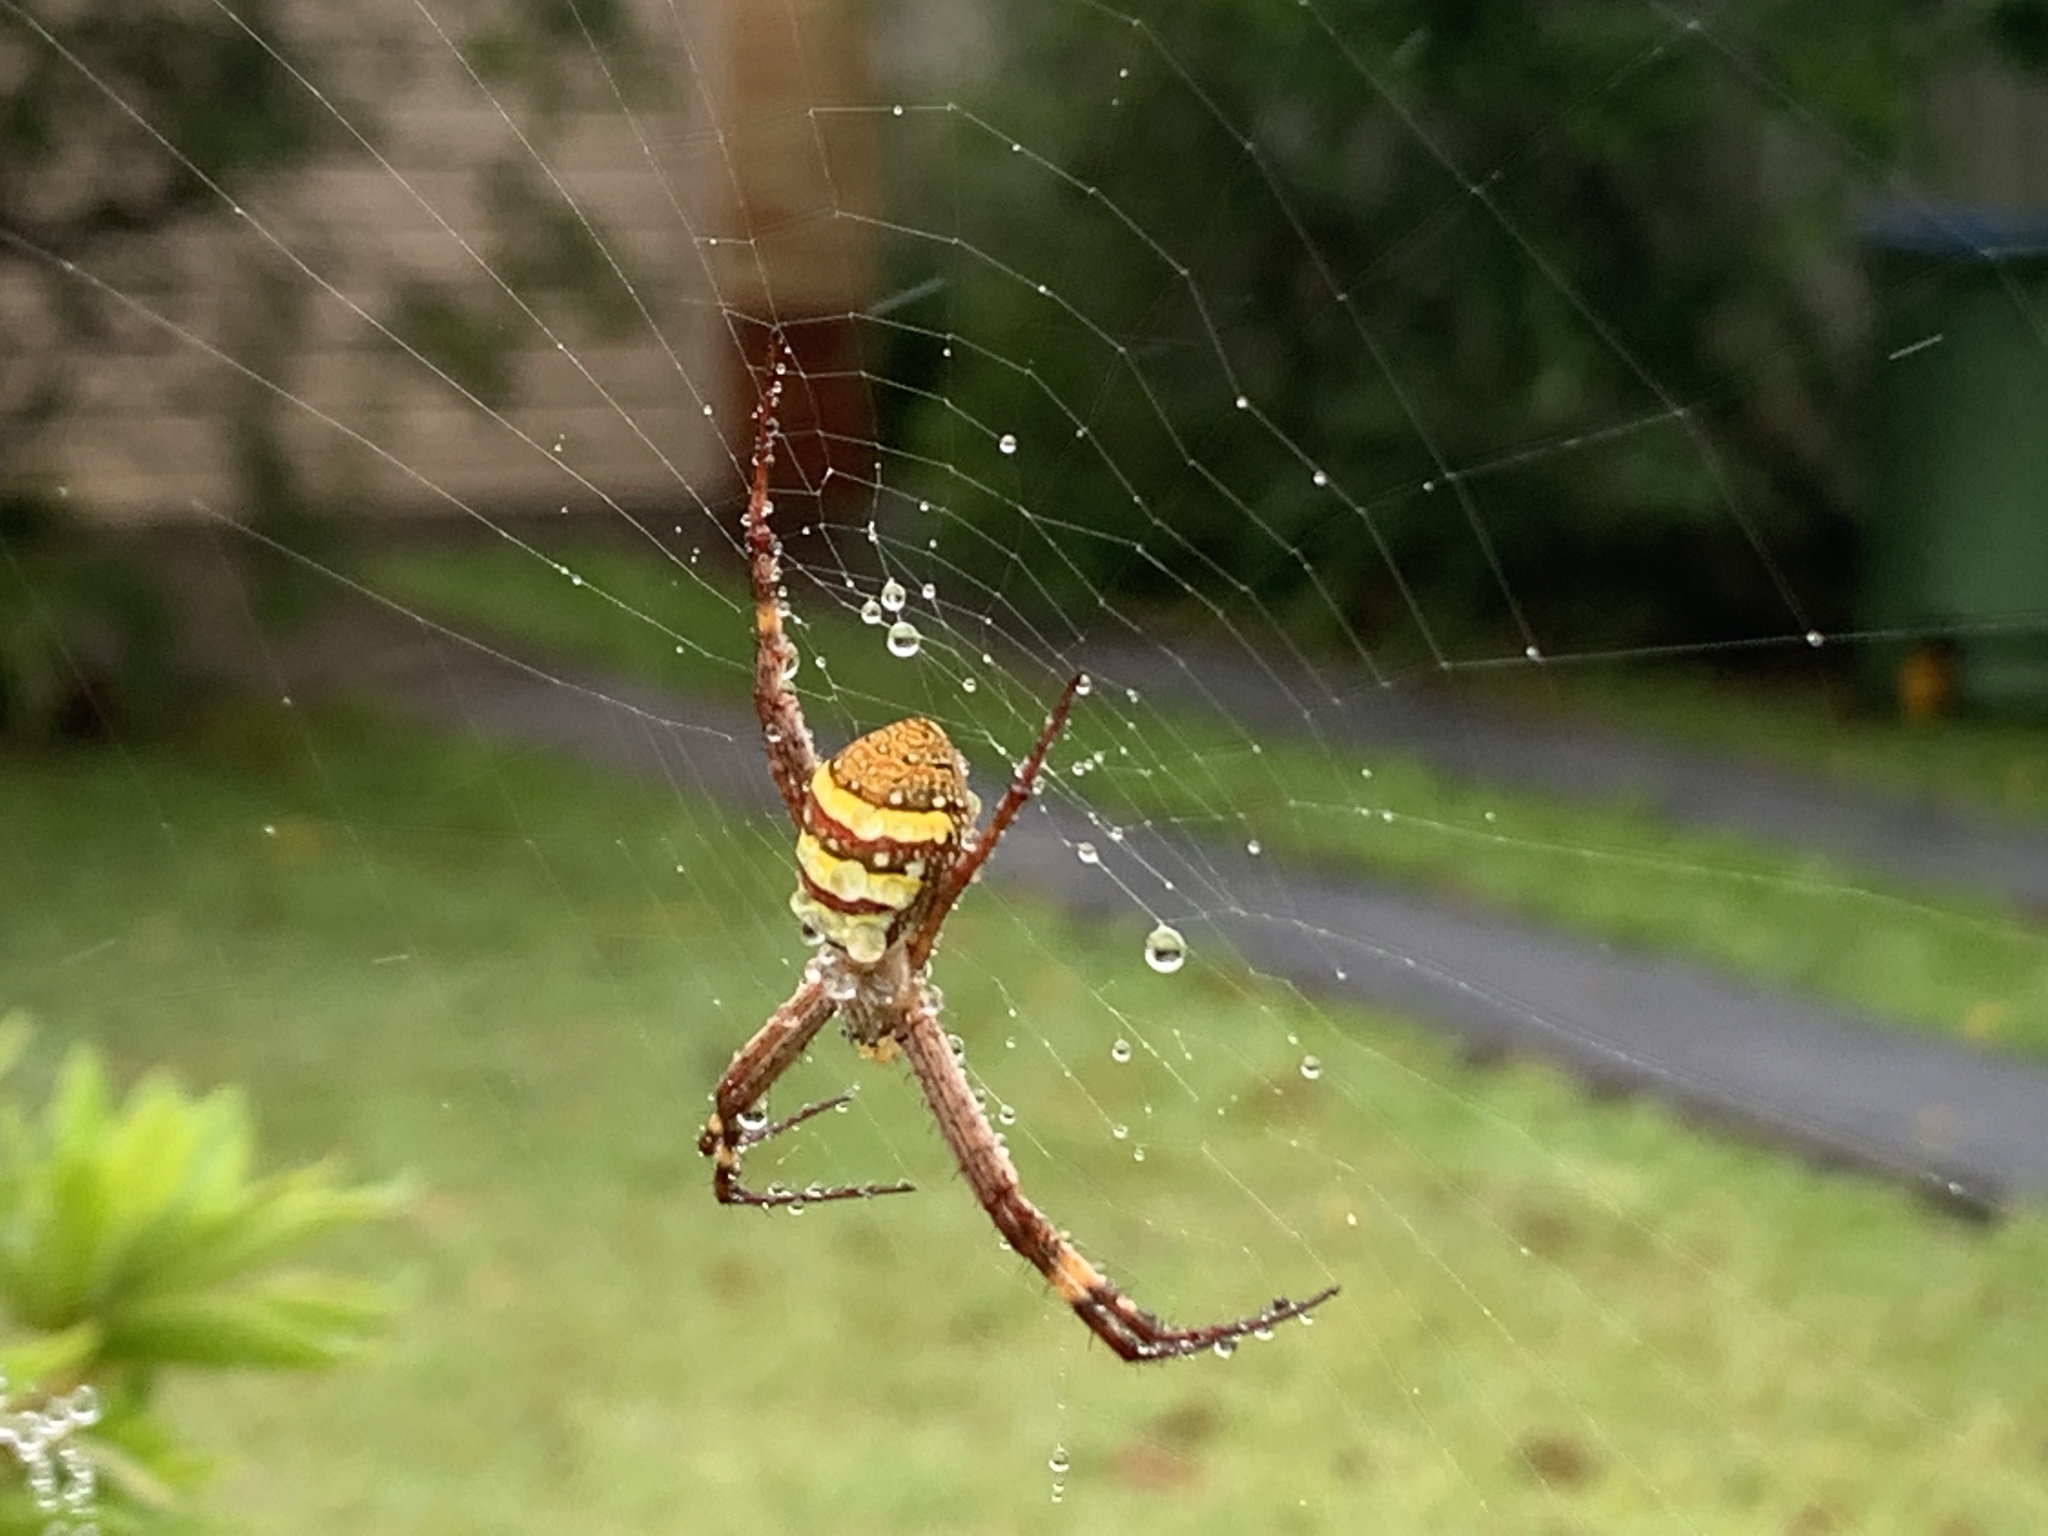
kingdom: Animalia
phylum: Arthropoda
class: Arachnida
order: Araneae
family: Araneidae
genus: Argiope
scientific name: Argiope keyserlingi
